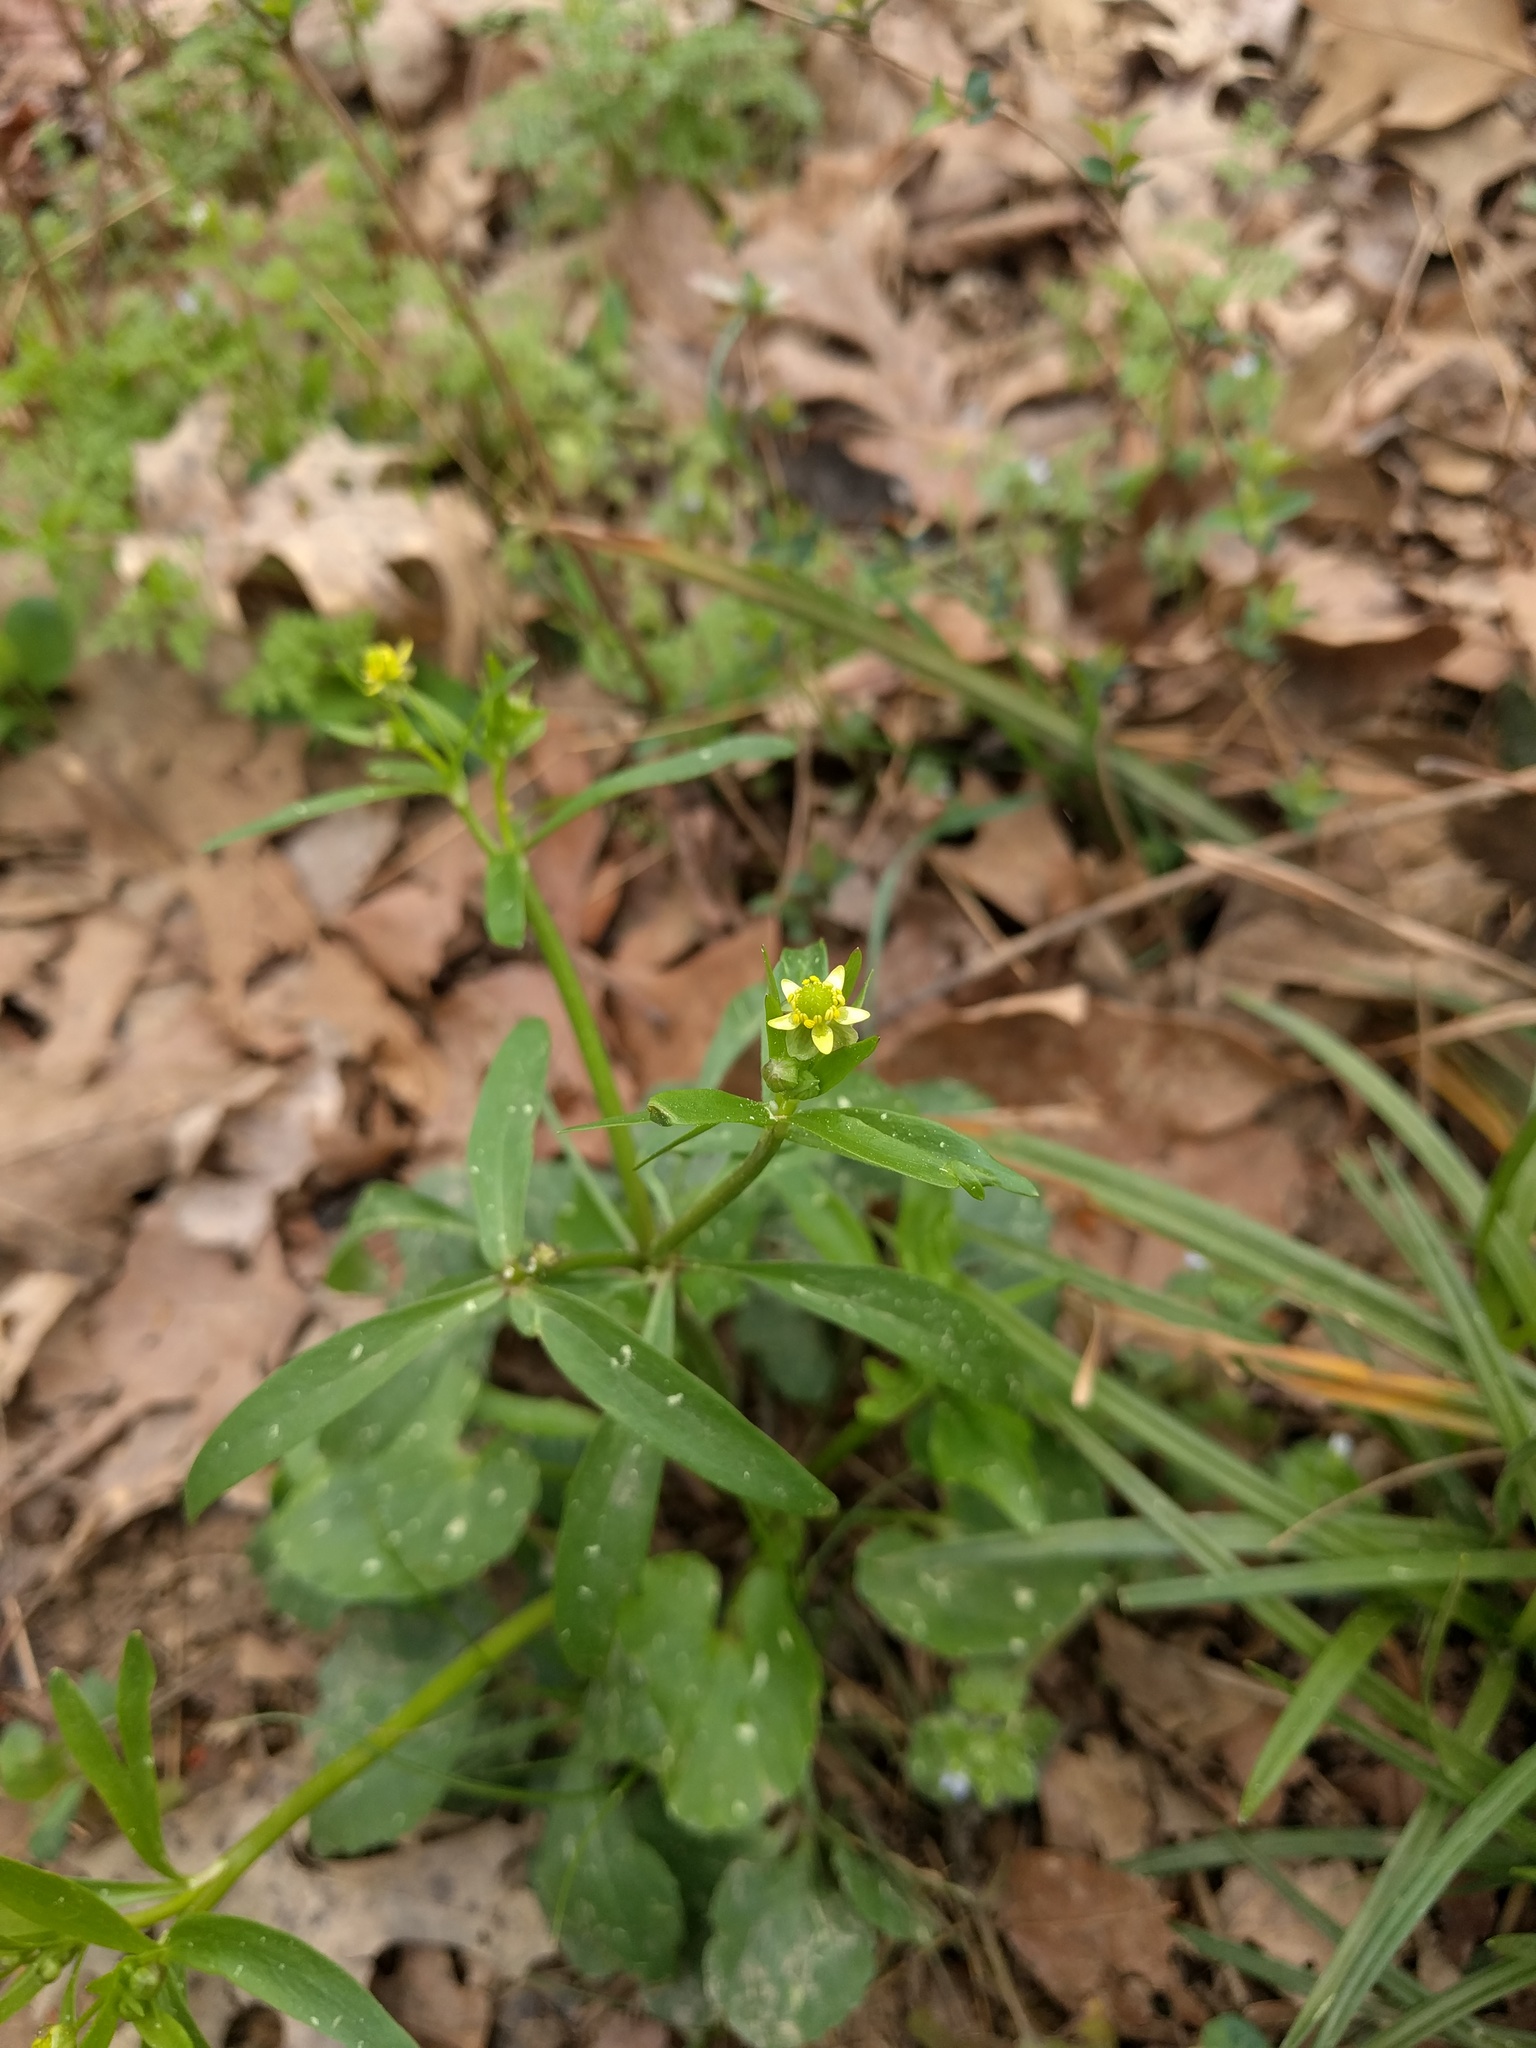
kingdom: Plantae
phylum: Tracheophyta
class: Magnoliopsida
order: Ranunculales
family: Ranunculaceae
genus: Ranunculus
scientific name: Ranunculus abortivus
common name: Early wood buttercup
